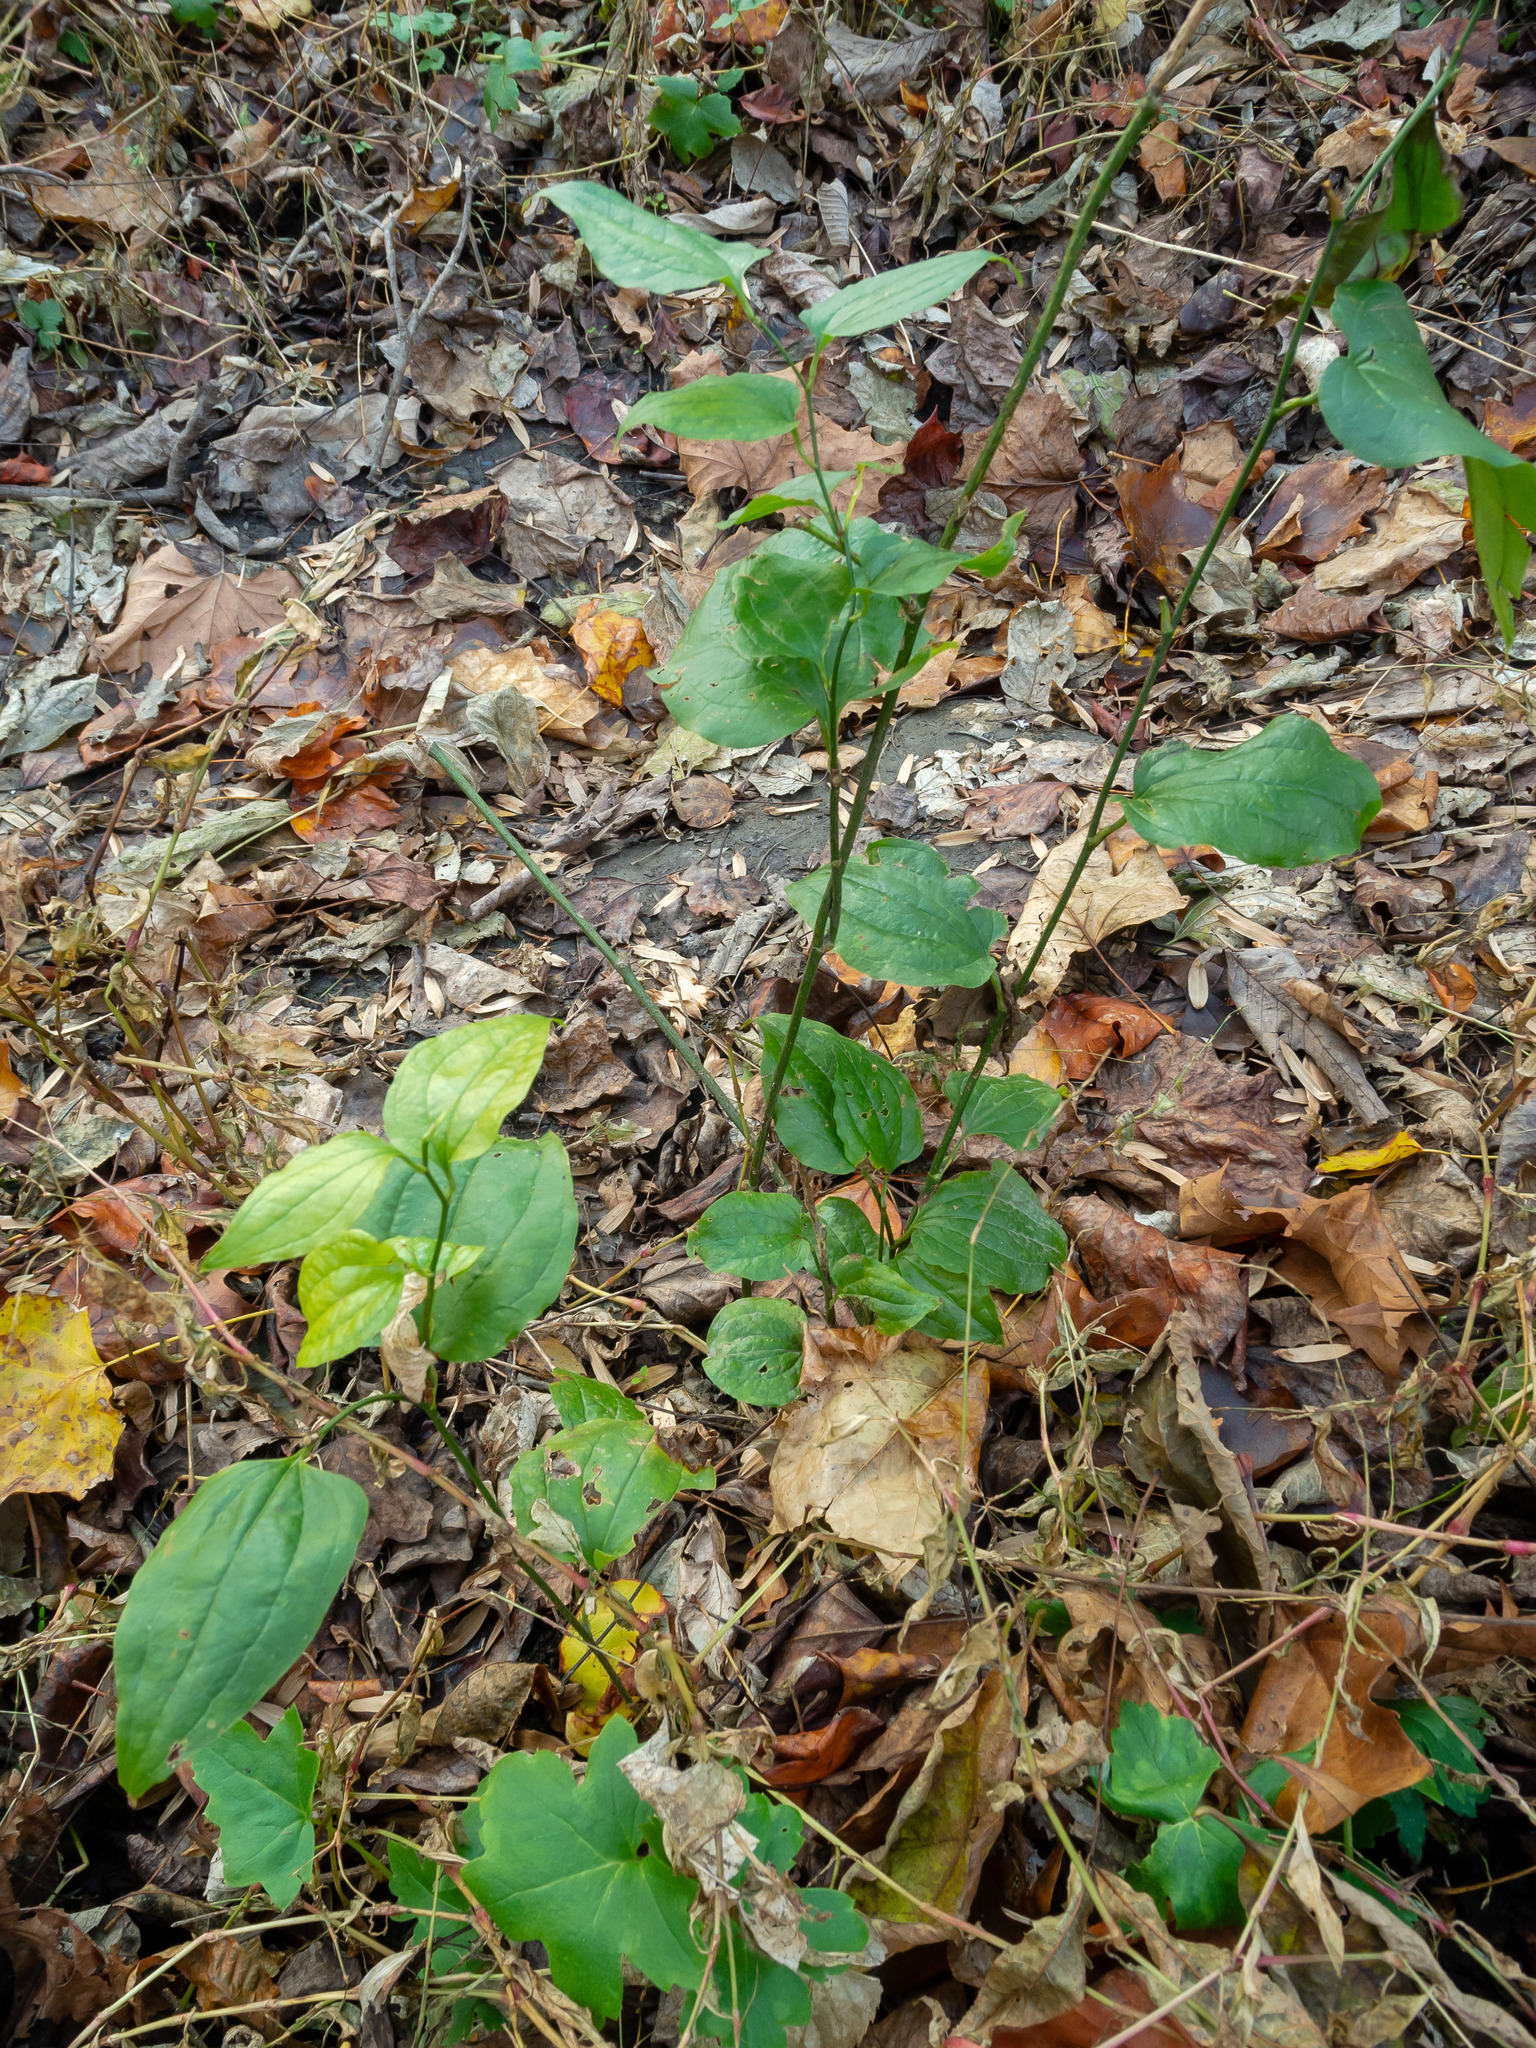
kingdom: Plantae
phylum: Tracheophyta
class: Liliopsida
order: Liliales
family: Smilacaceae
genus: Smilax
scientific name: Smilax tamnoides
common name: Hellfetter
